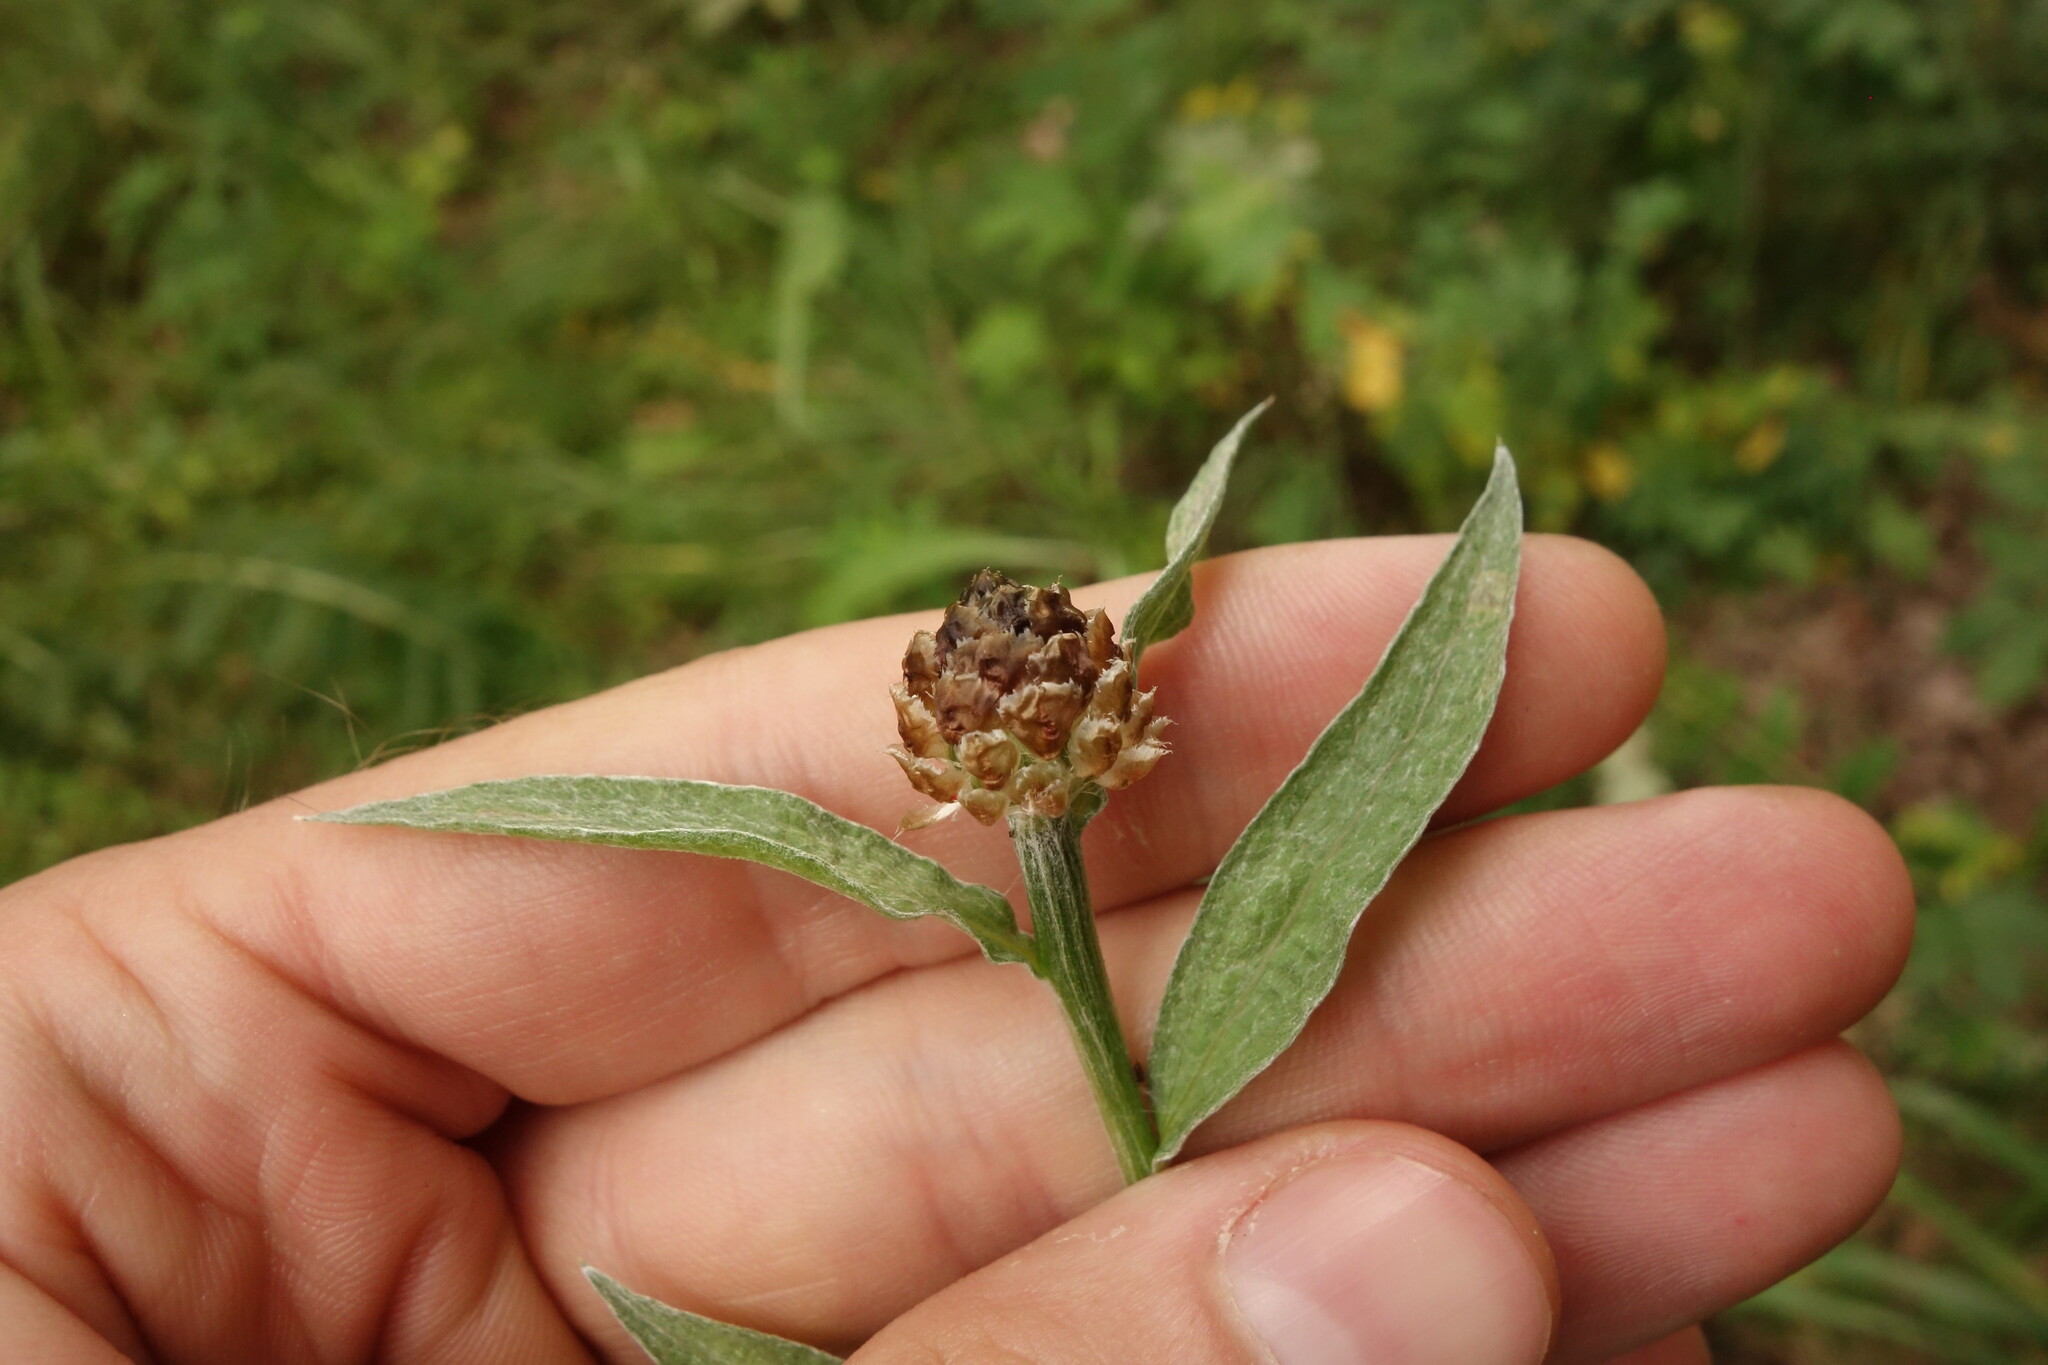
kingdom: Plantae
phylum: Tracheophyta
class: Magnoliopsida
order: Asterales
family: Asteraceae
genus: Centaurea
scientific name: Centaurea jacea
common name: Brown knapweed
